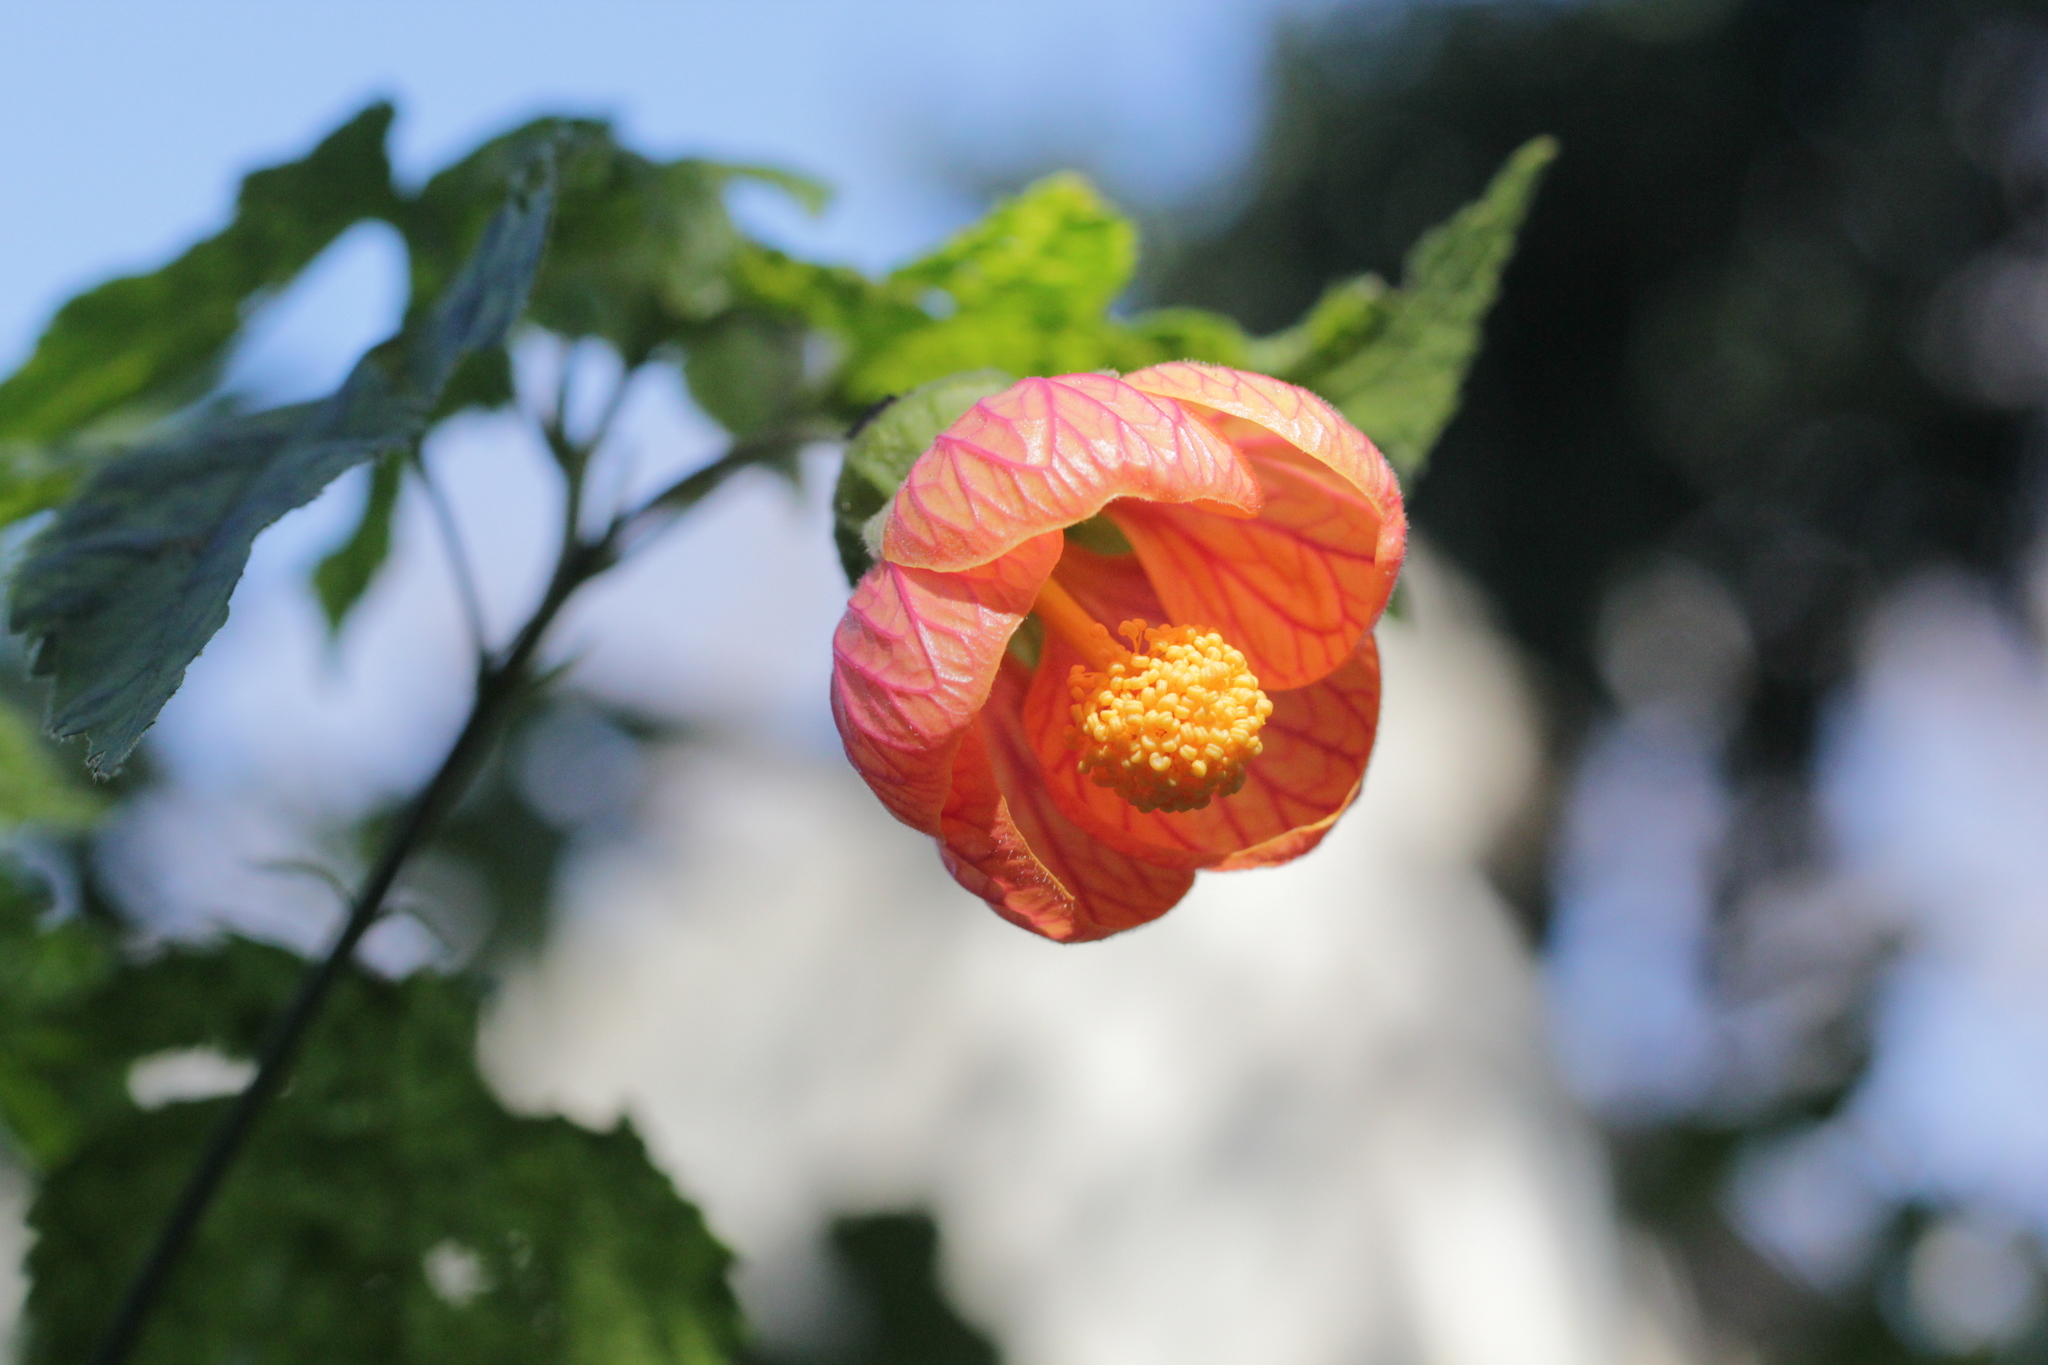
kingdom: Plantae
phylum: Tracheophyta
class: Magnoliopsida
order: Malvales
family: Malvaceae
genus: Callianthe
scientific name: Callianthe picta
